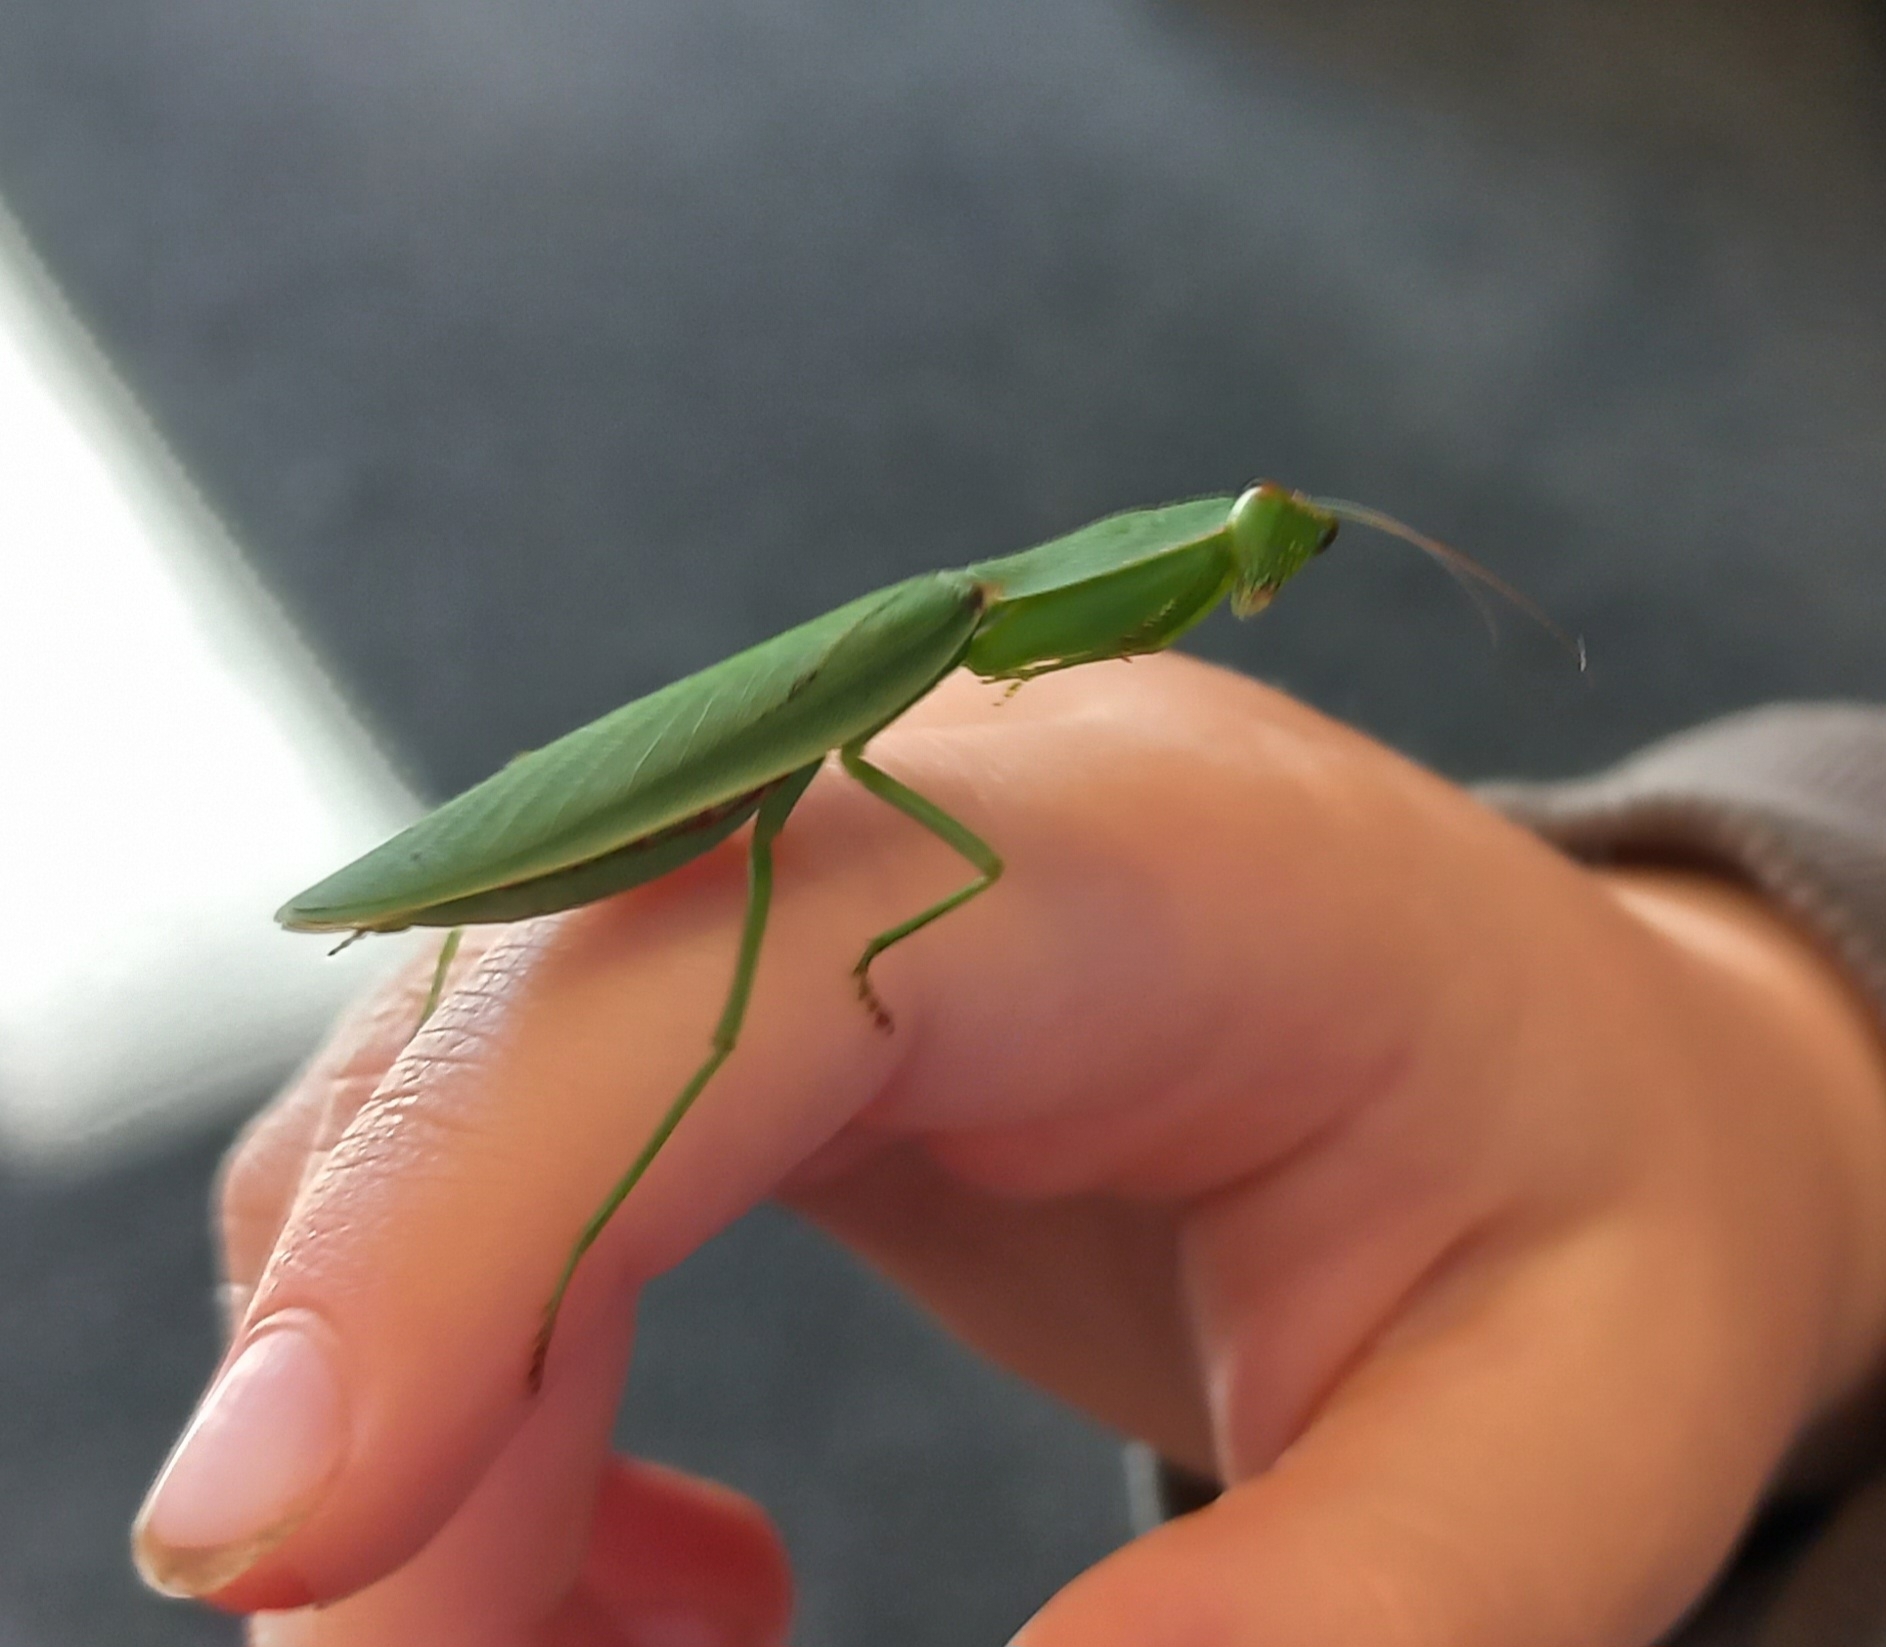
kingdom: Animalia
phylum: Arthropoda
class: Insecta
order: Mantodea
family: Mantidae
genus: Orthodera
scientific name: Orthodera novaezealandiae
